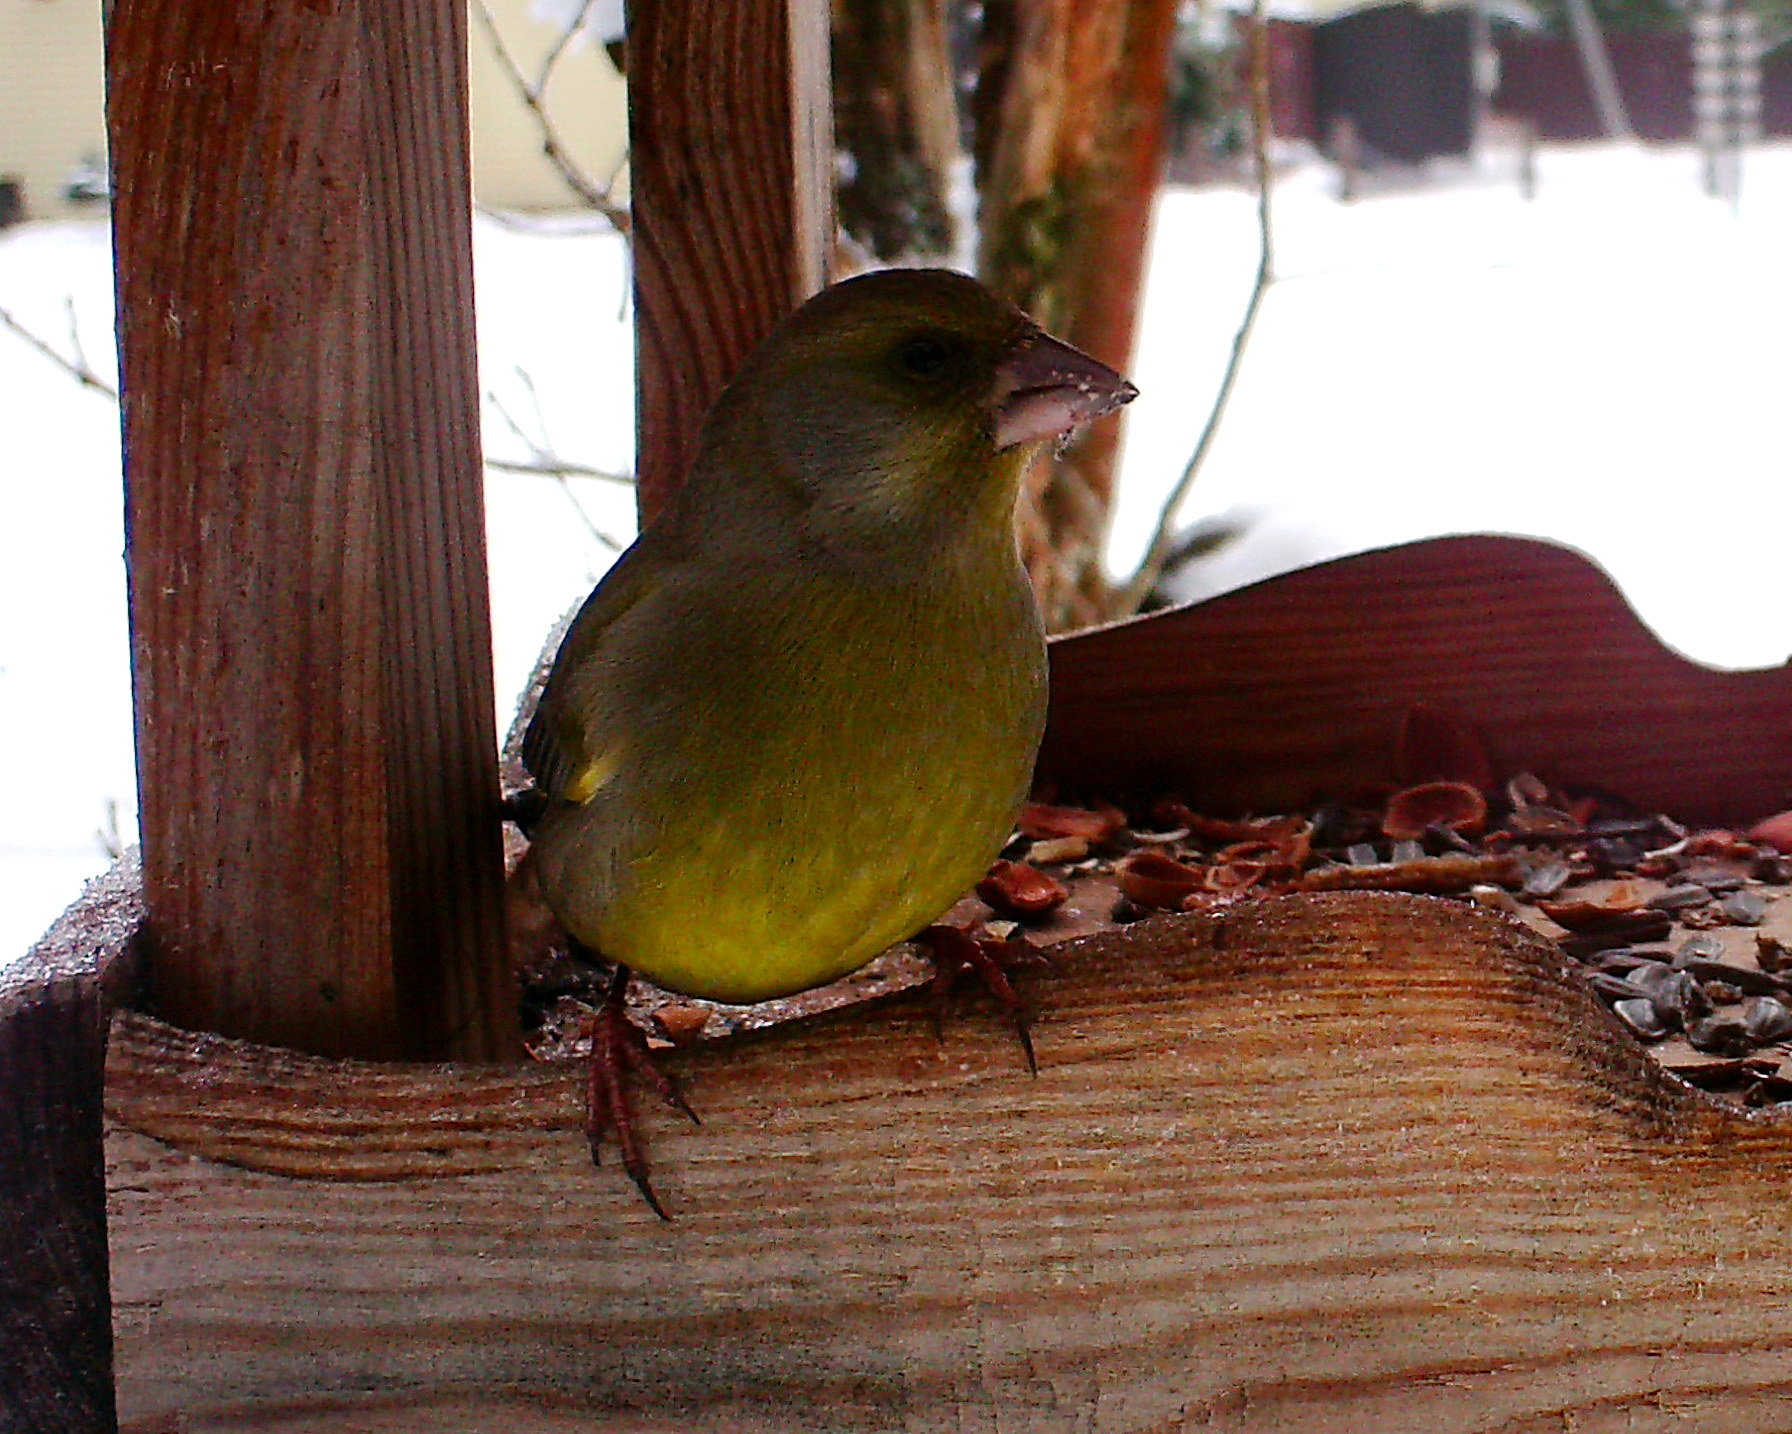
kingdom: Plantae
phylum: Tracheophyta
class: Liliopsida
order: Poales
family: Poaceae
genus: Chloris
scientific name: Chloris chloris
